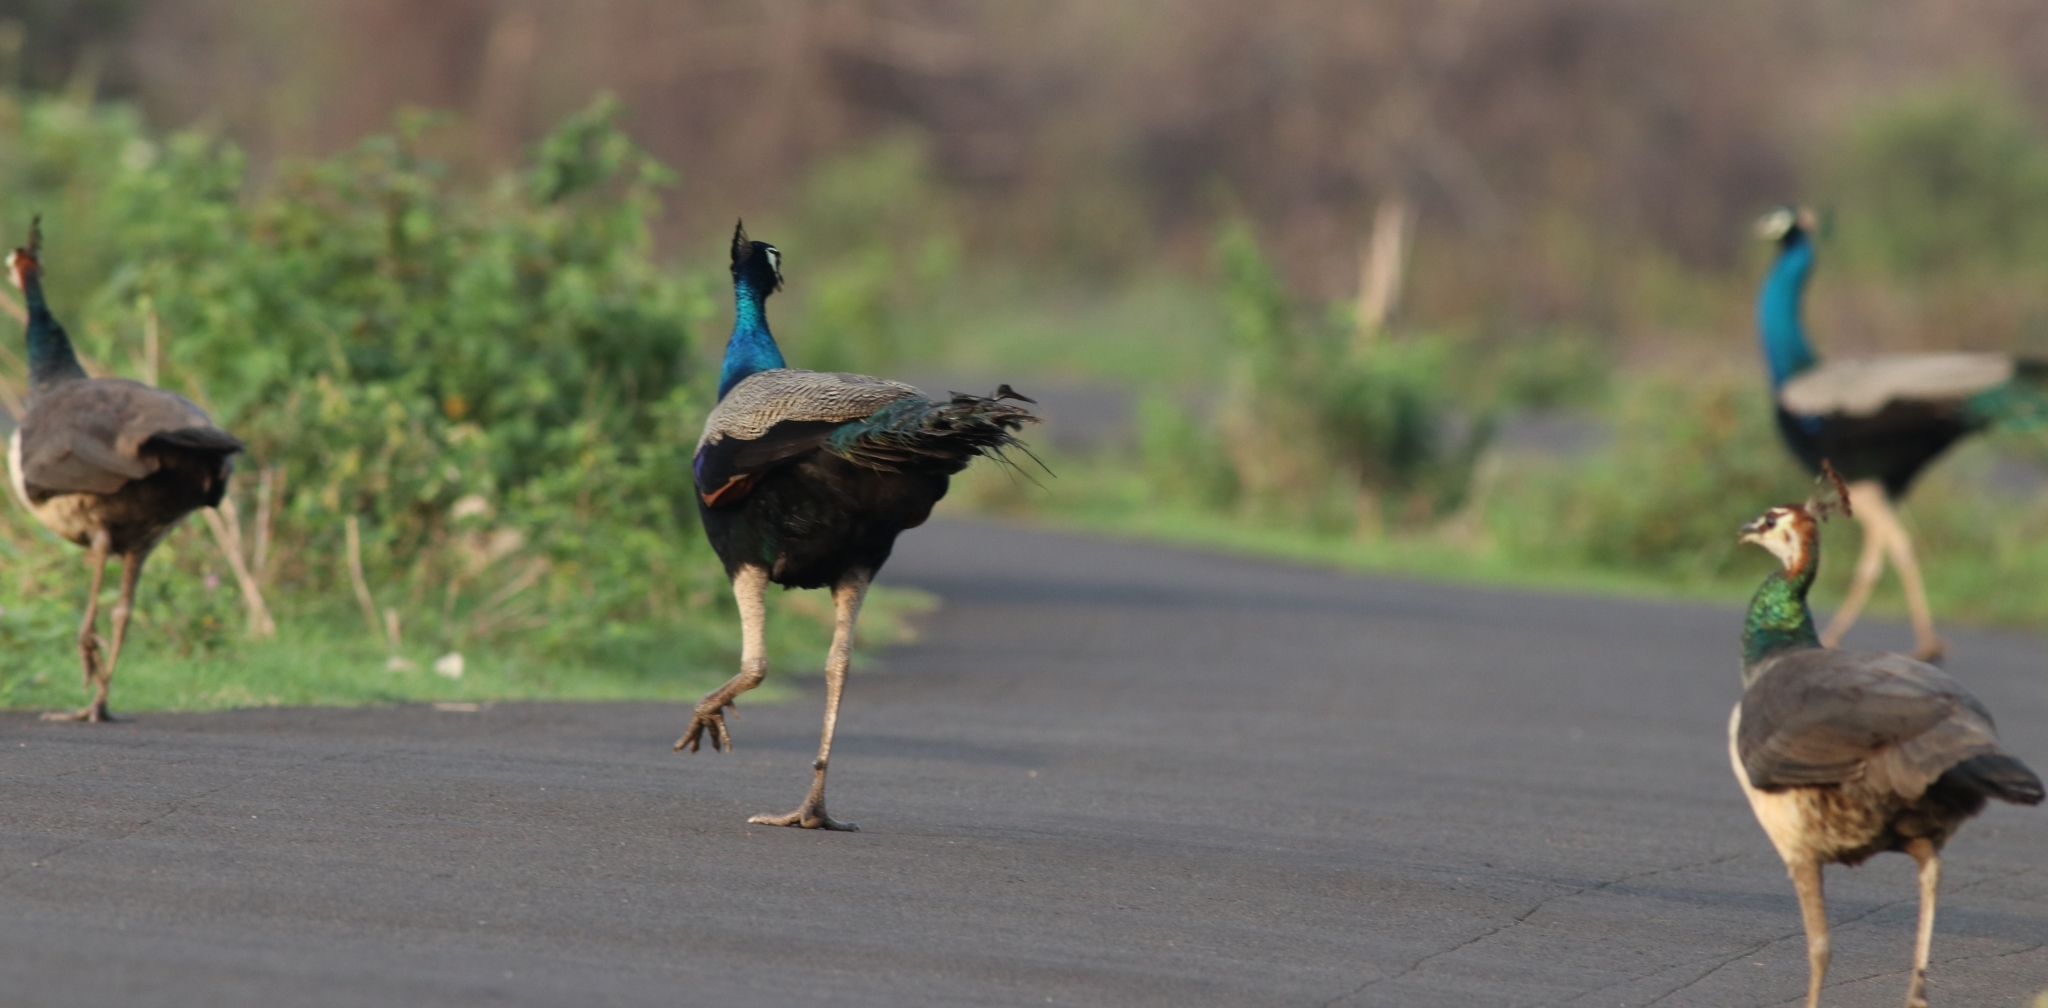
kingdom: Animalia
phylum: Chordata
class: Aves
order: Galliformes
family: Phasianidae
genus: Pavo
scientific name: Pavo cristatus
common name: Indian peafowl
